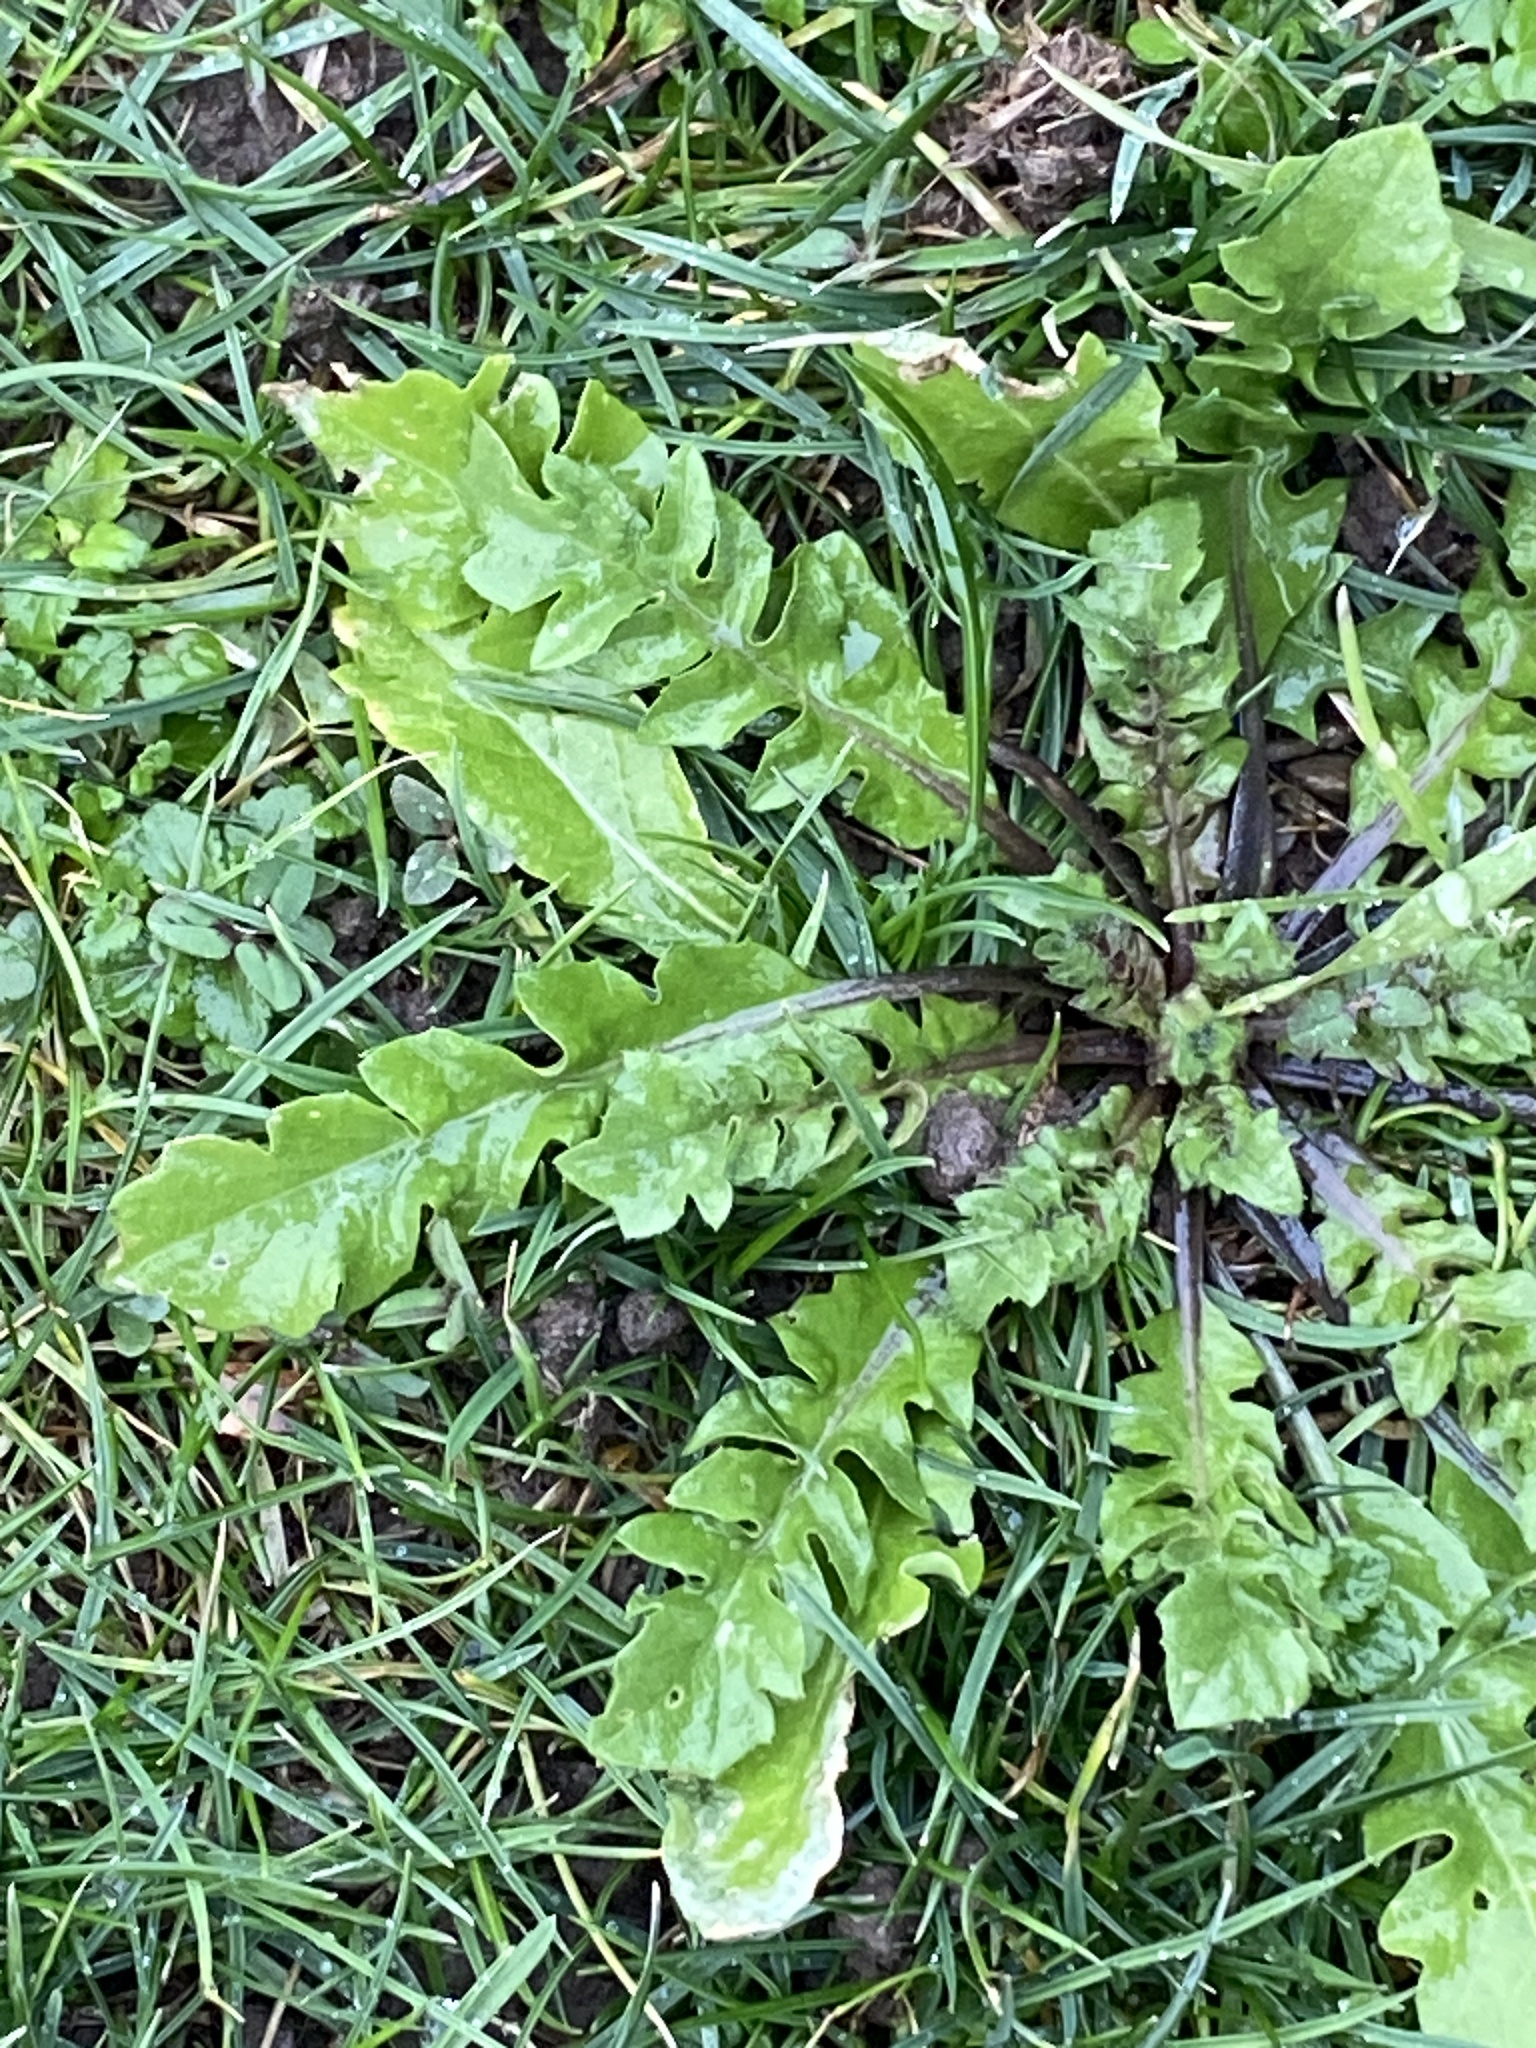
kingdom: Plantae
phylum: Tracheophyta
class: Magnoliopsida
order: Brassicales
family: Brassicaceae
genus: Capsella
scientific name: Capsella bursa-pastoris
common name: Shepherd's purse
